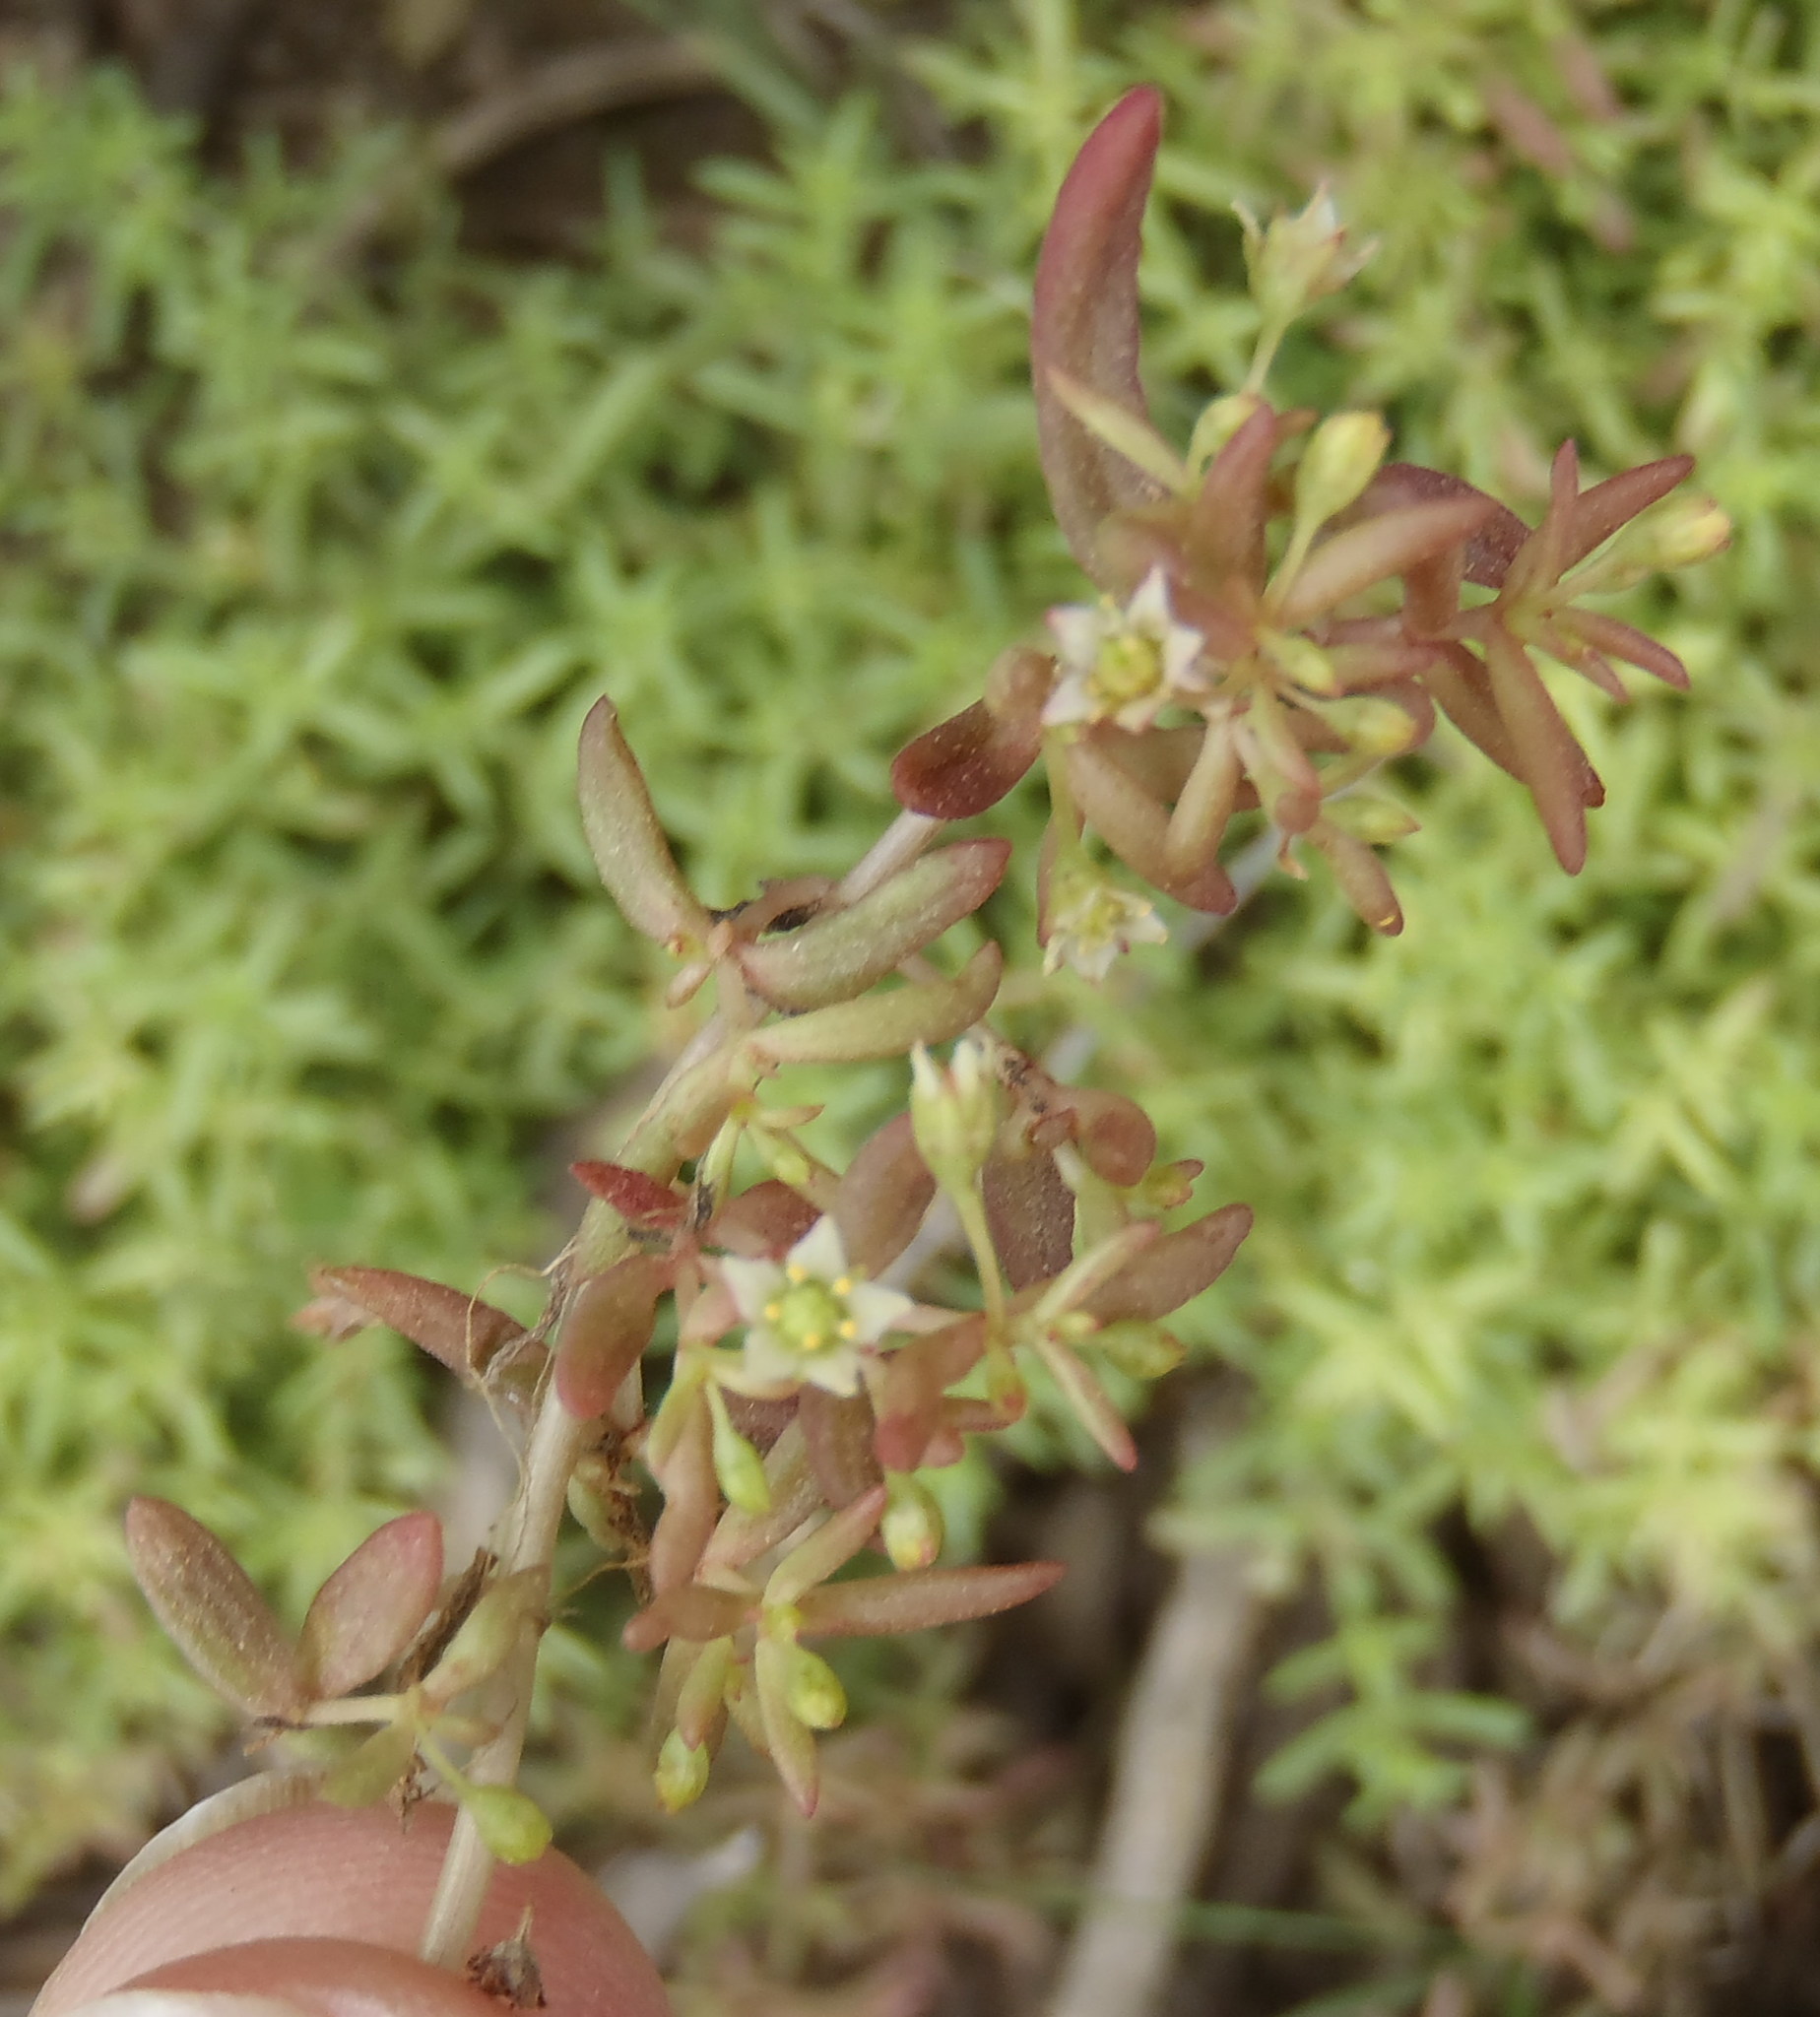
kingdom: Plantae
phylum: Tracheophyta
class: Magnoliopsida
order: Saxifragales
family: Crassulaceae
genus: Crassula
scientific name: Crassula expansa
